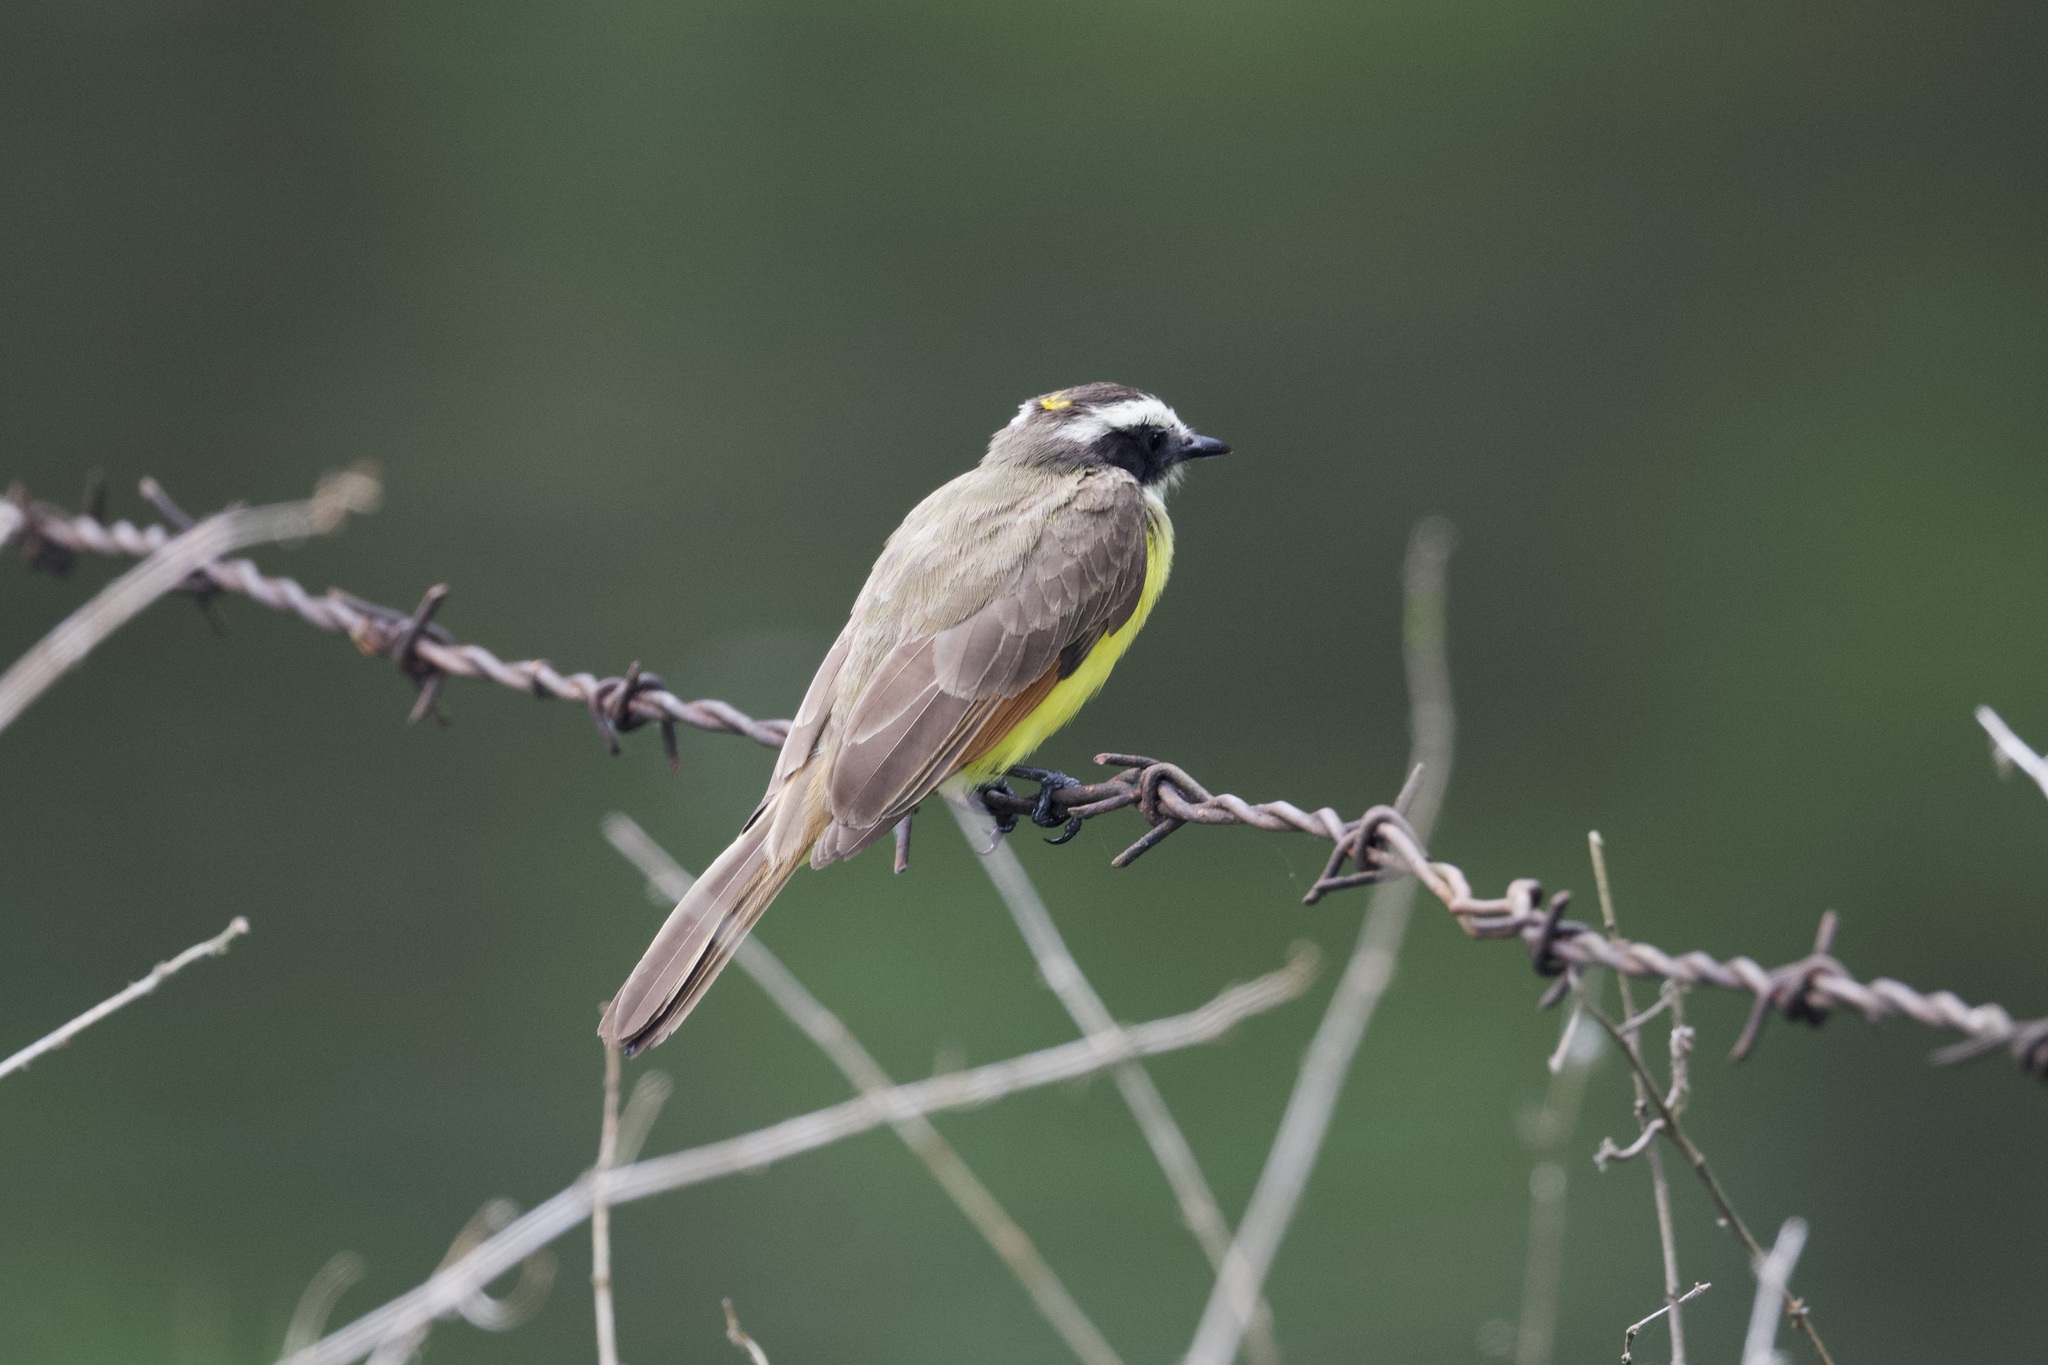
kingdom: Animalia
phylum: Chordata
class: Aves
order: Passeriformes
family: Tyrannidae
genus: Myiozetetes
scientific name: Myiozetetes cayanensis
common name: Rusty-margined flycatcher
